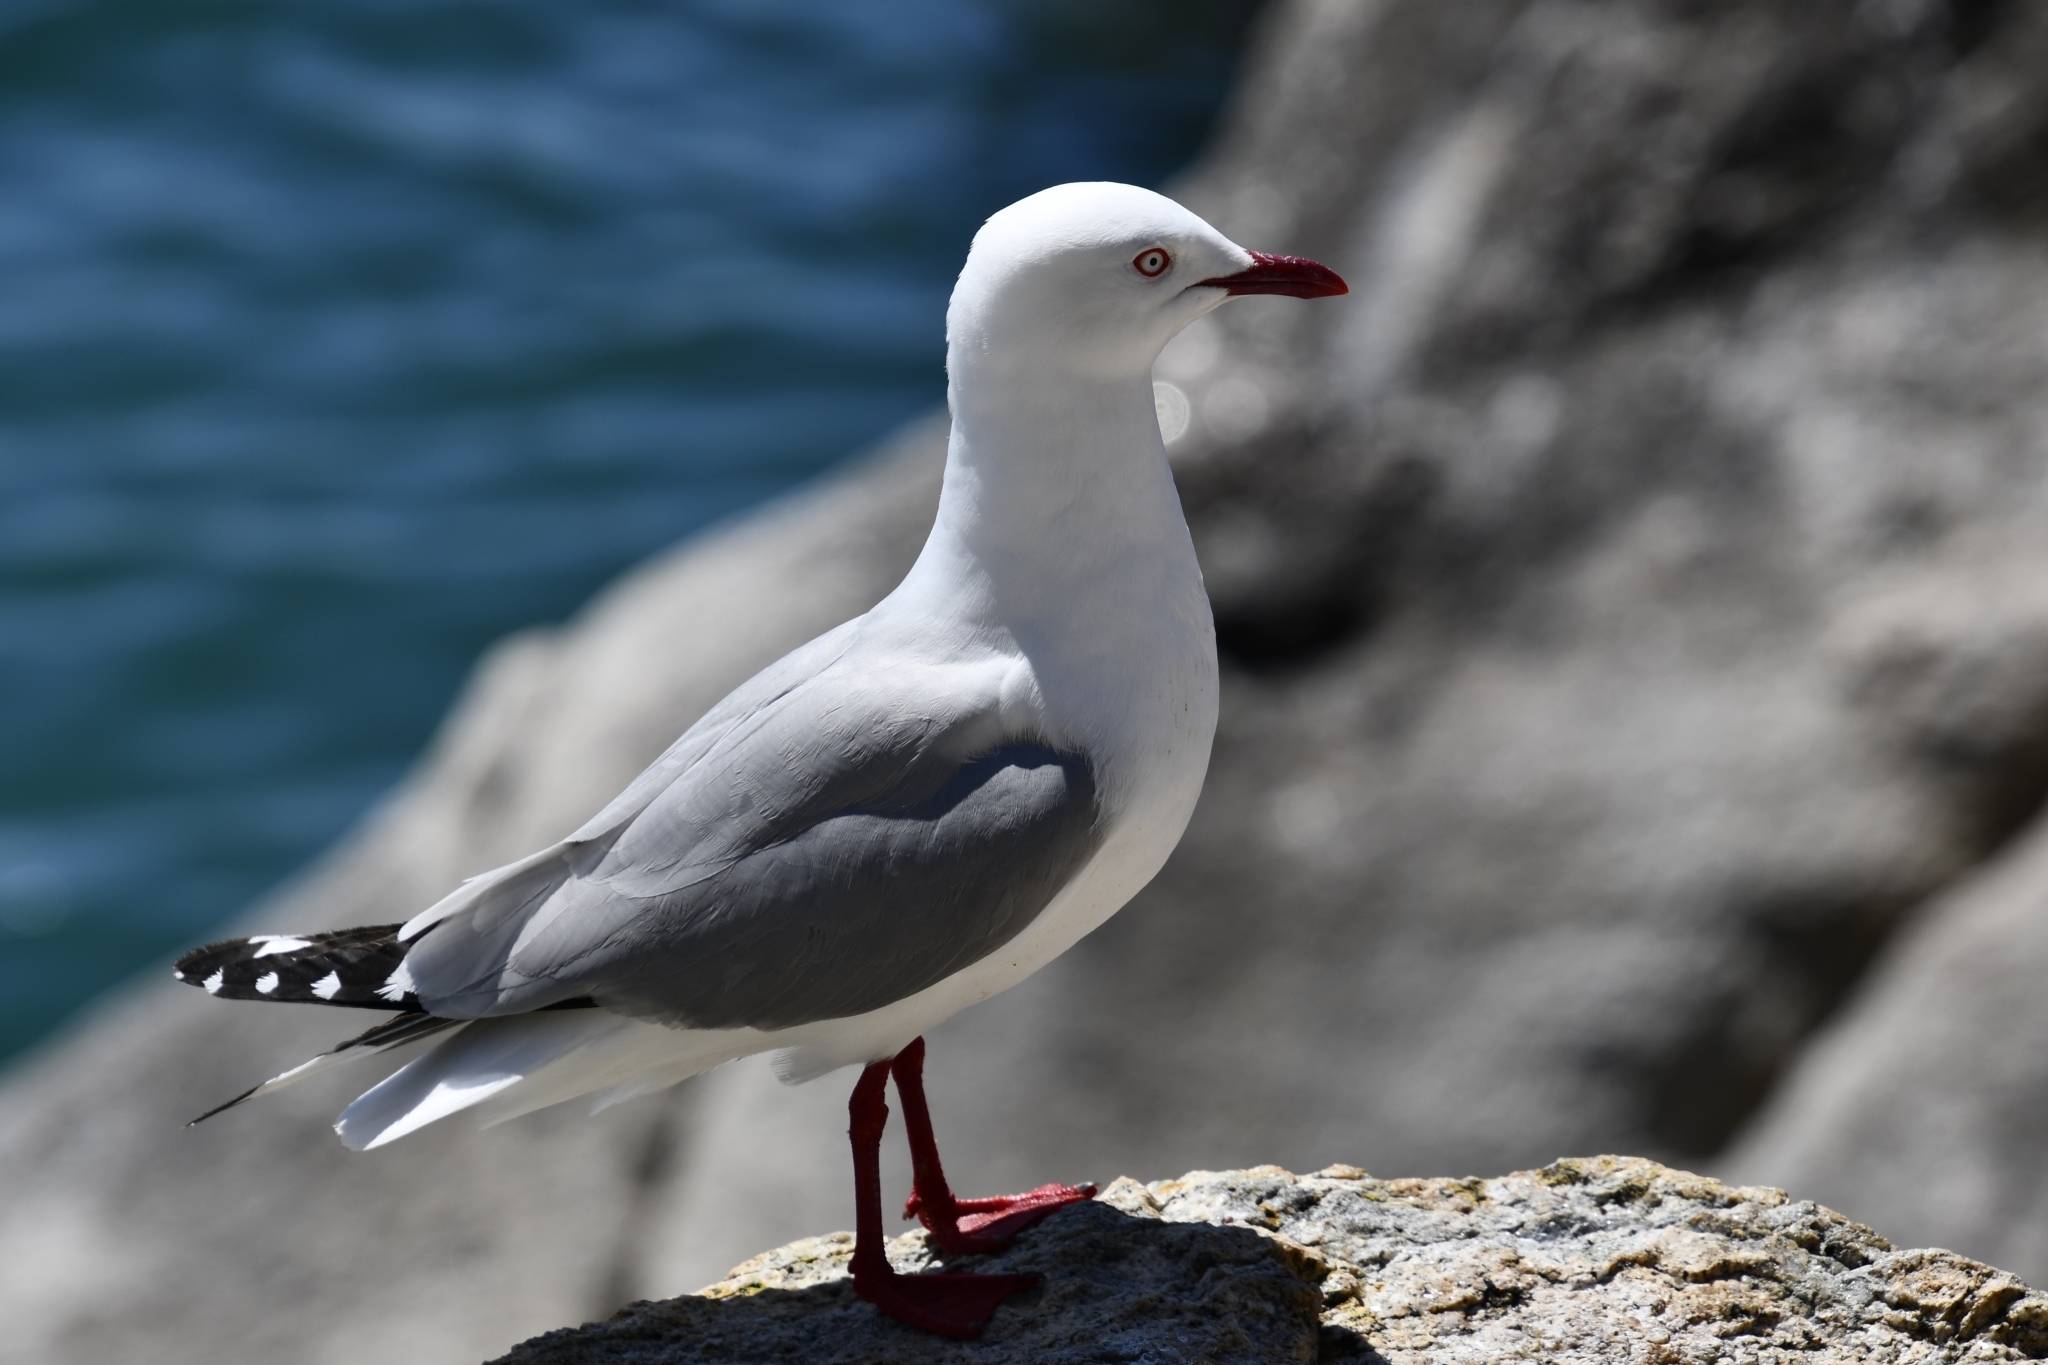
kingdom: Animalia
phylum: Chordata
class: Aves
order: Charadriiformes
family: Laridae
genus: Chroicocephalus
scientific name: Chroicocephalus novaehollandiae
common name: Silver gull
